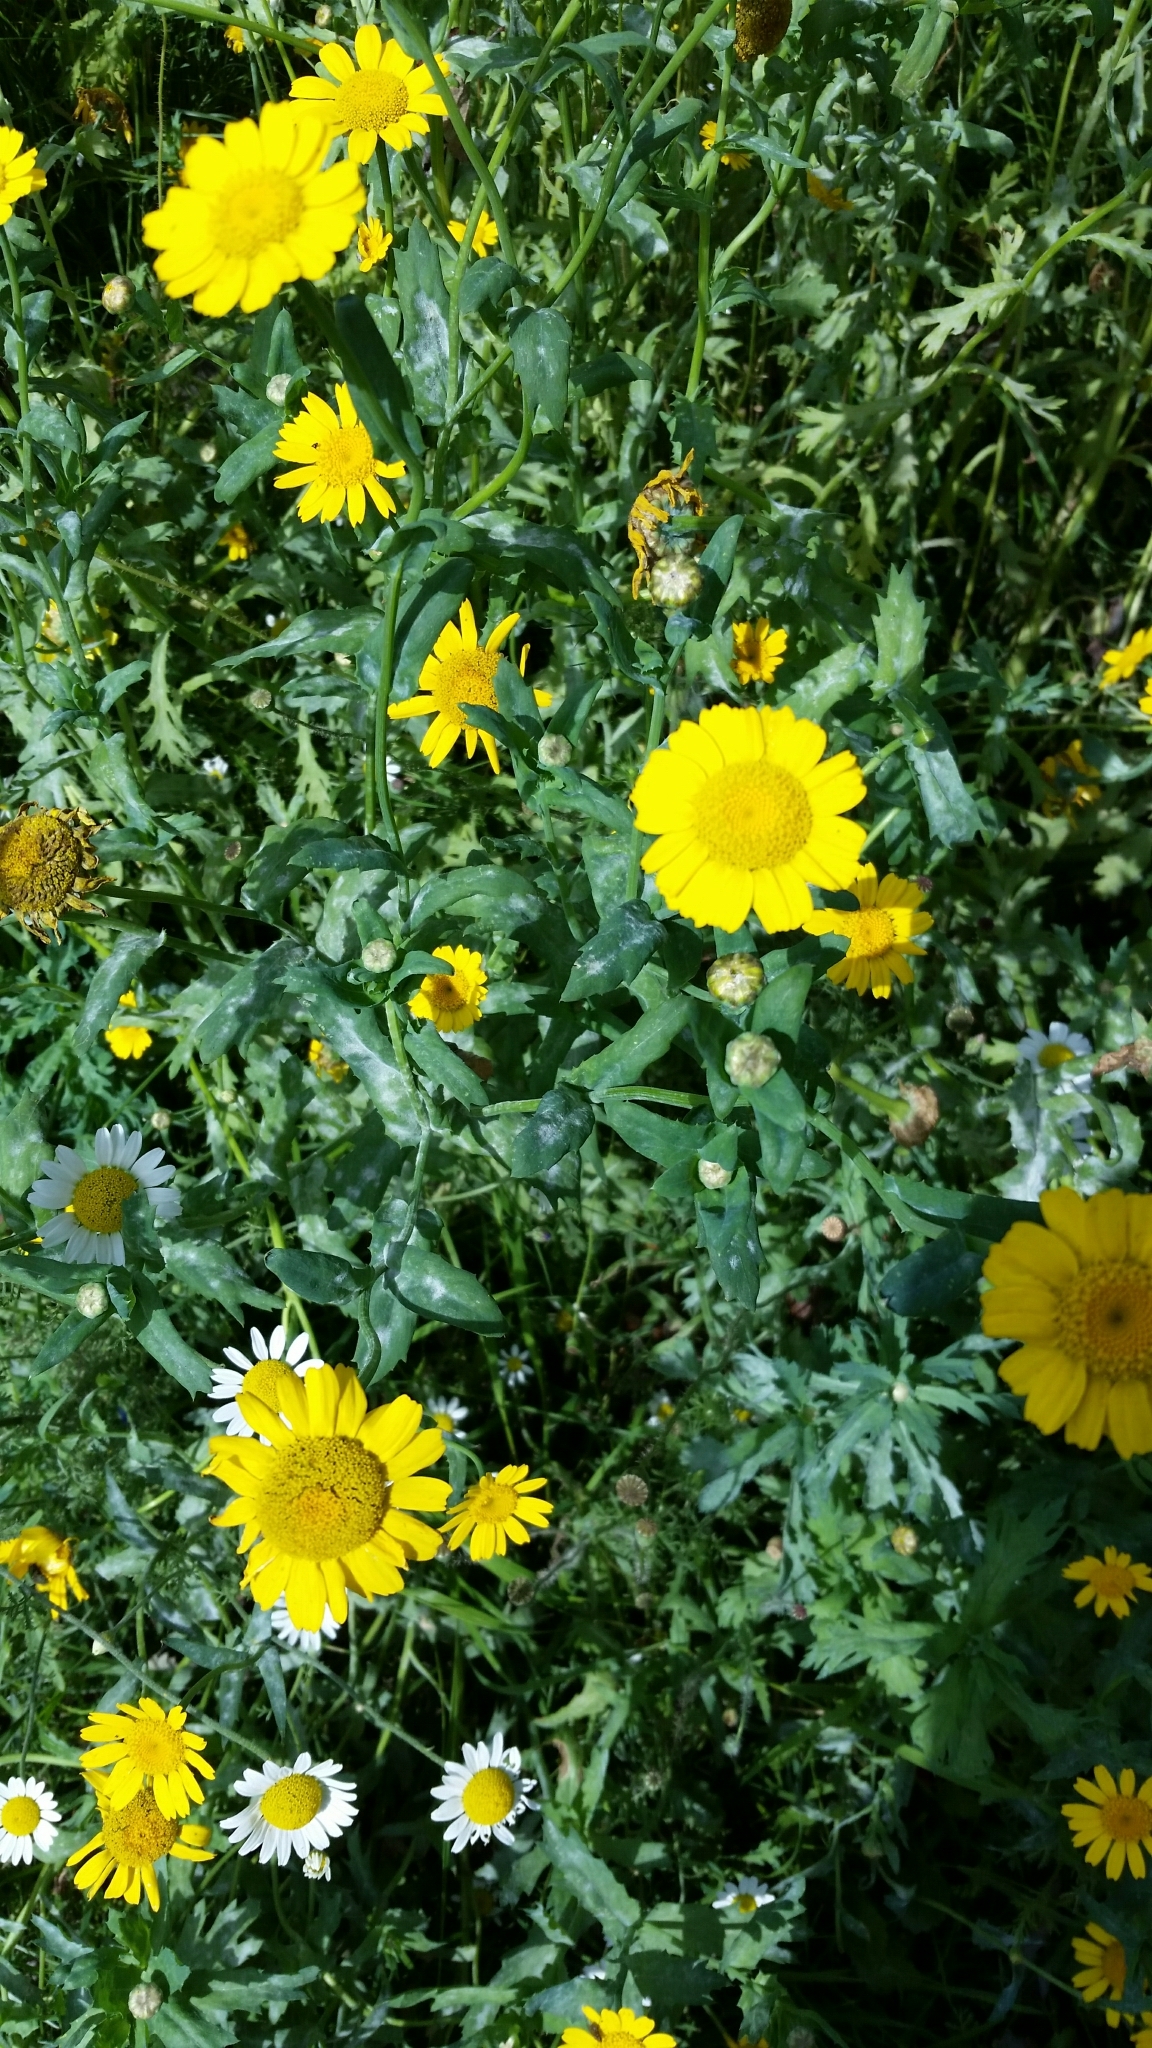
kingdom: Plantae
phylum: Tracheophyta
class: Magnoliopsida
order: Asterales
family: Asteraceae
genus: Glebionis
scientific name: Glebionis segetum
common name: Corndaisy
